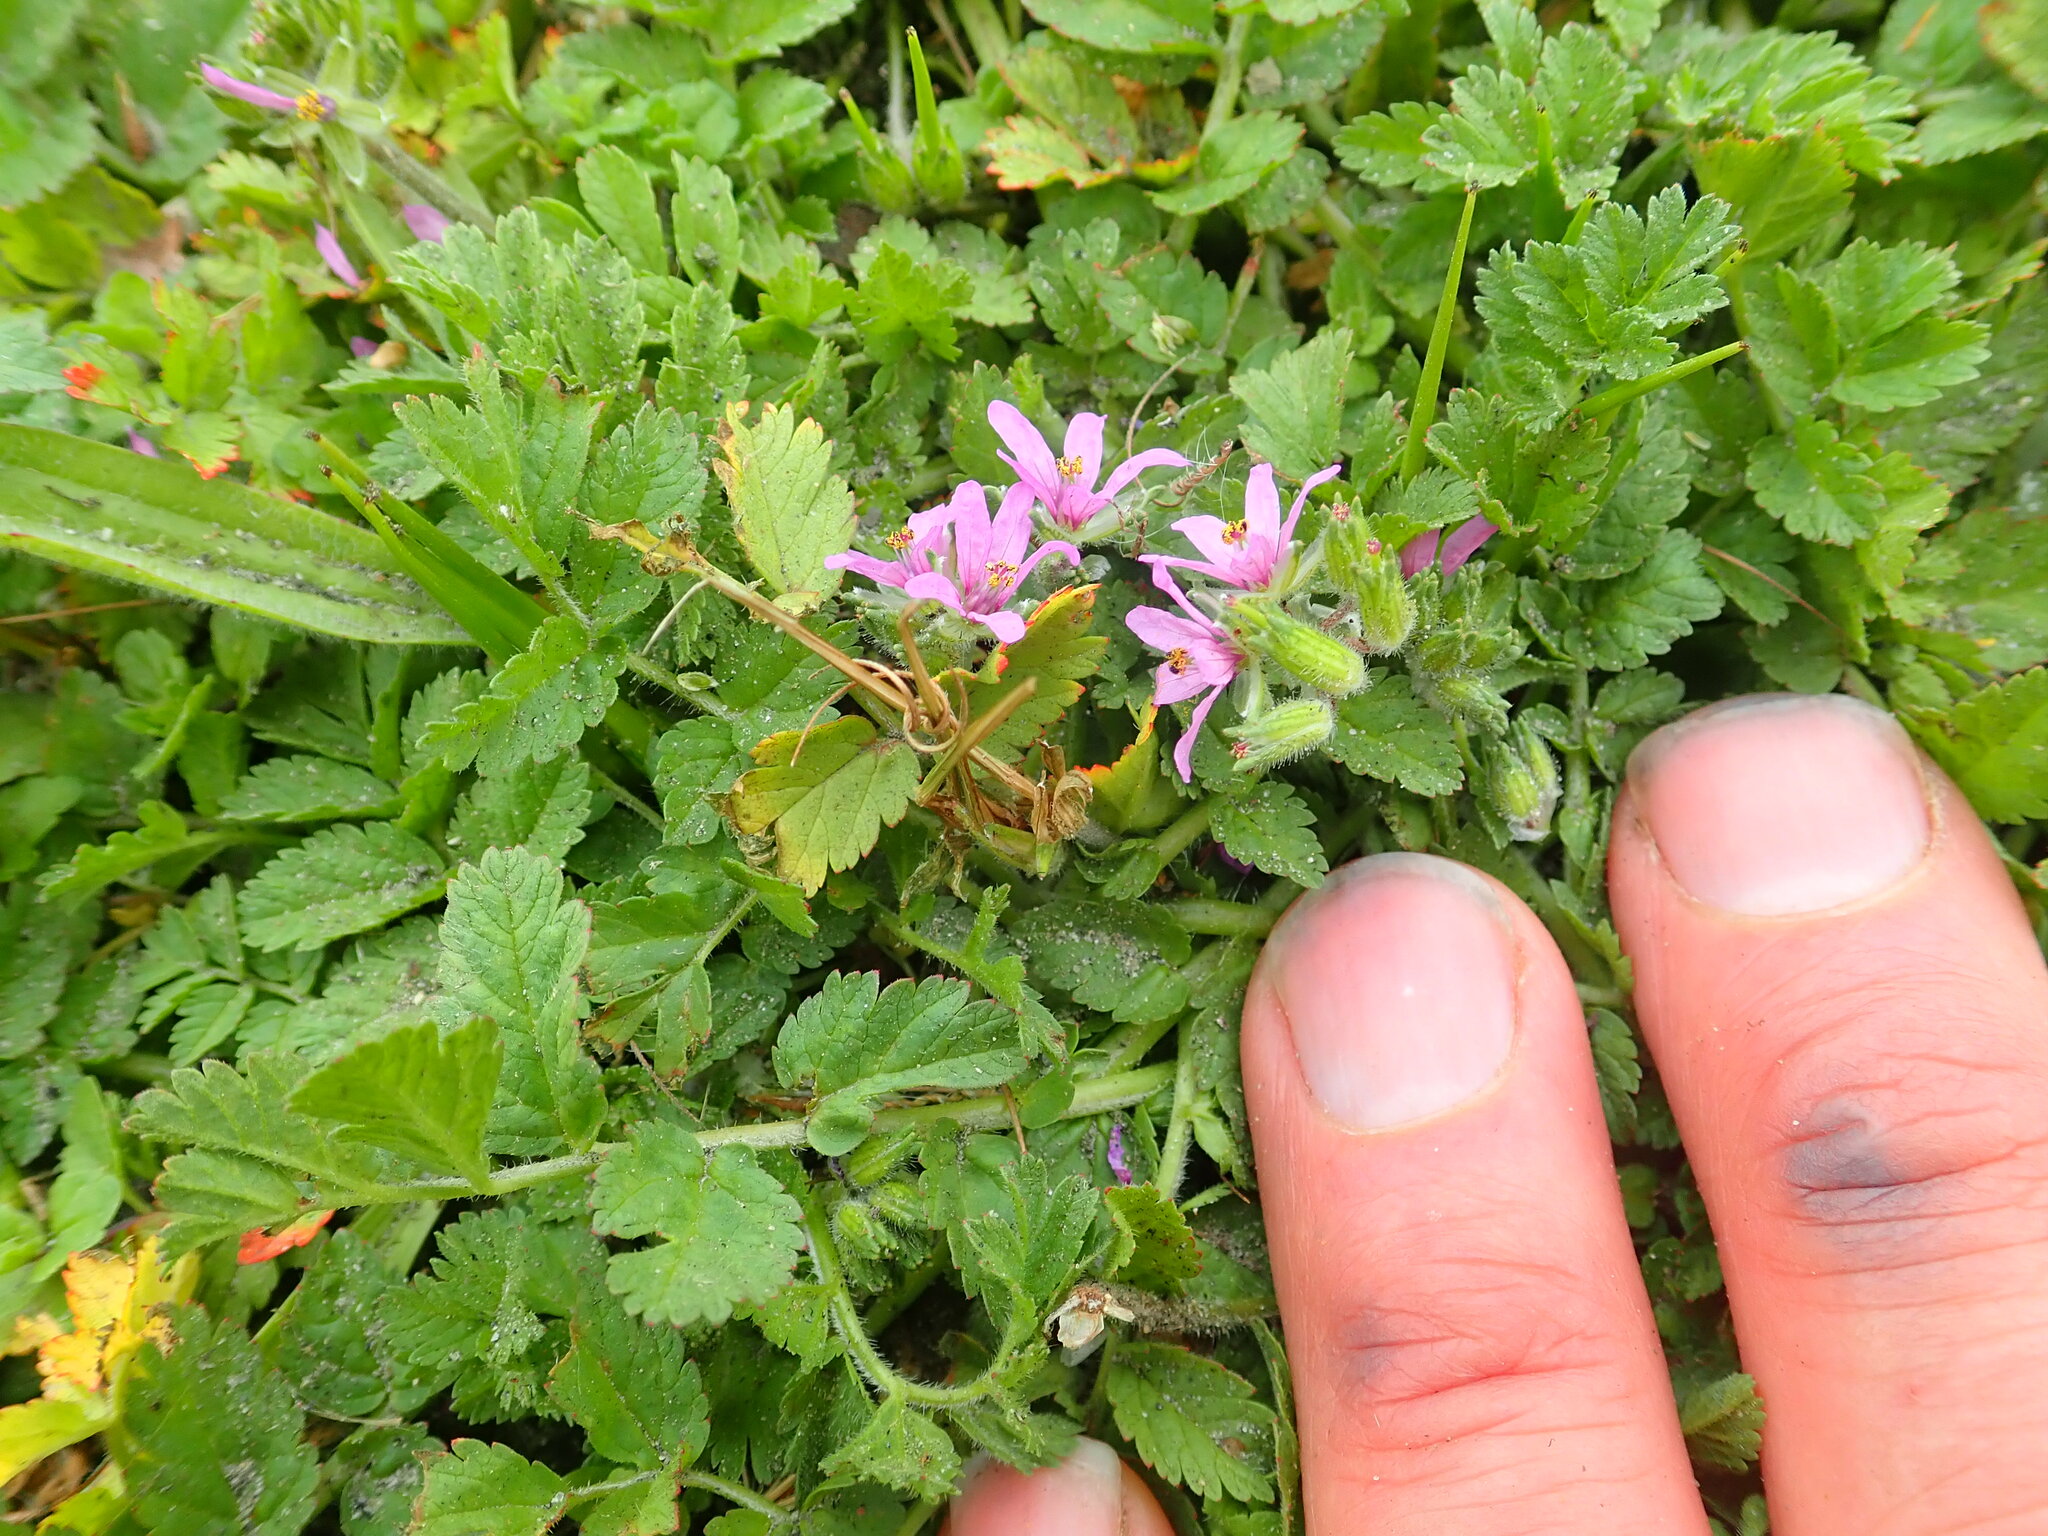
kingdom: Plantae
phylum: Tracheophyta
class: Magnoliopsida
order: Geraniales
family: Geraniaceae
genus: Erodium
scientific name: Erodium moschatum
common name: Musk stork's-bill
